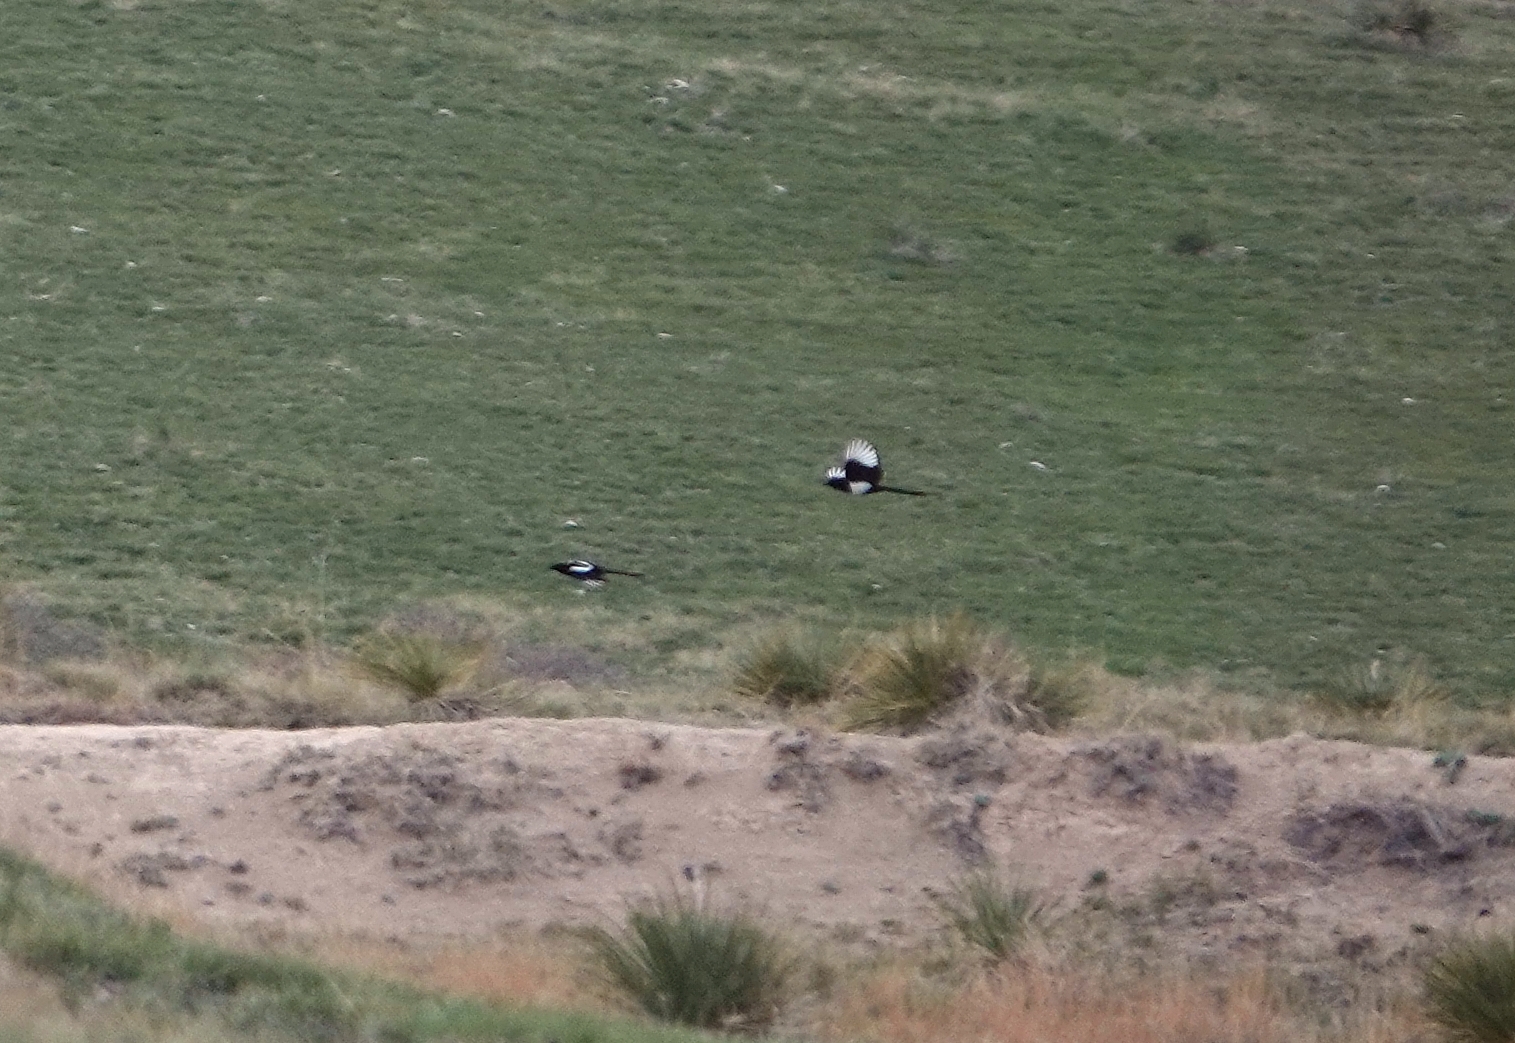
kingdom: Animalia
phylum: Chordata
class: Aves
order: Passeriformes
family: Corvidae
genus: Pica
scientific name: Pica hudsonia
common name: Black-billed magpie
